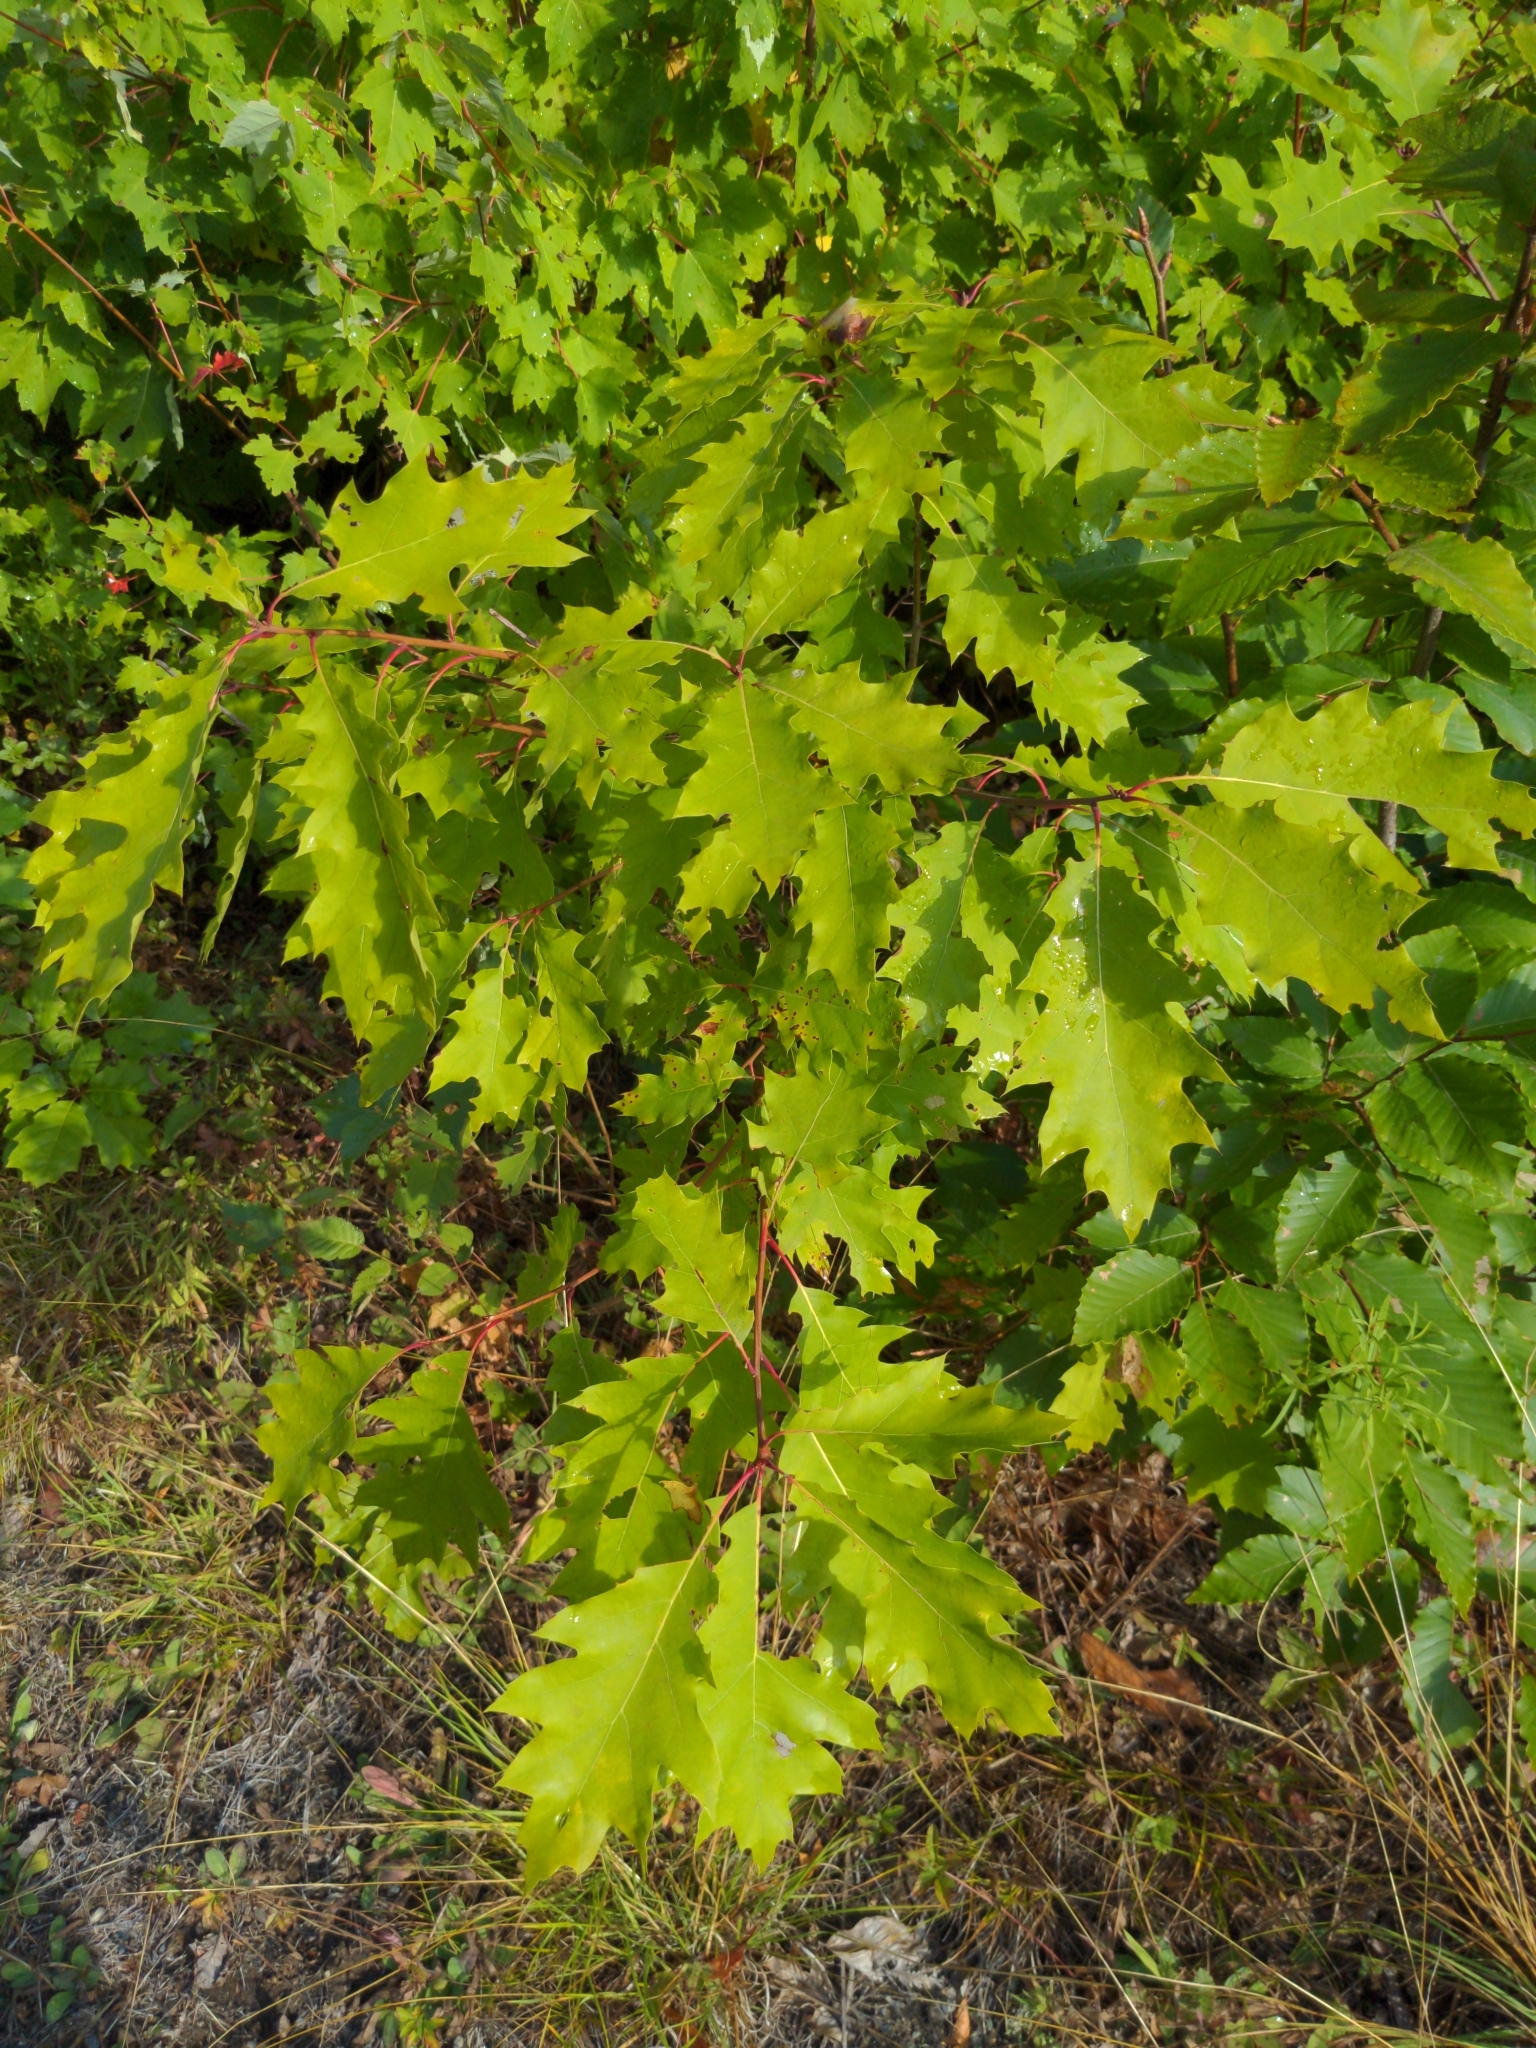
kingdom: Plantae
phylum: Tracheophyta
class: Magnoliopsida
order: Fagales
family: Fagaceae
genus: Quercus
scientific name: Quercus rubra
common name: Red oak
